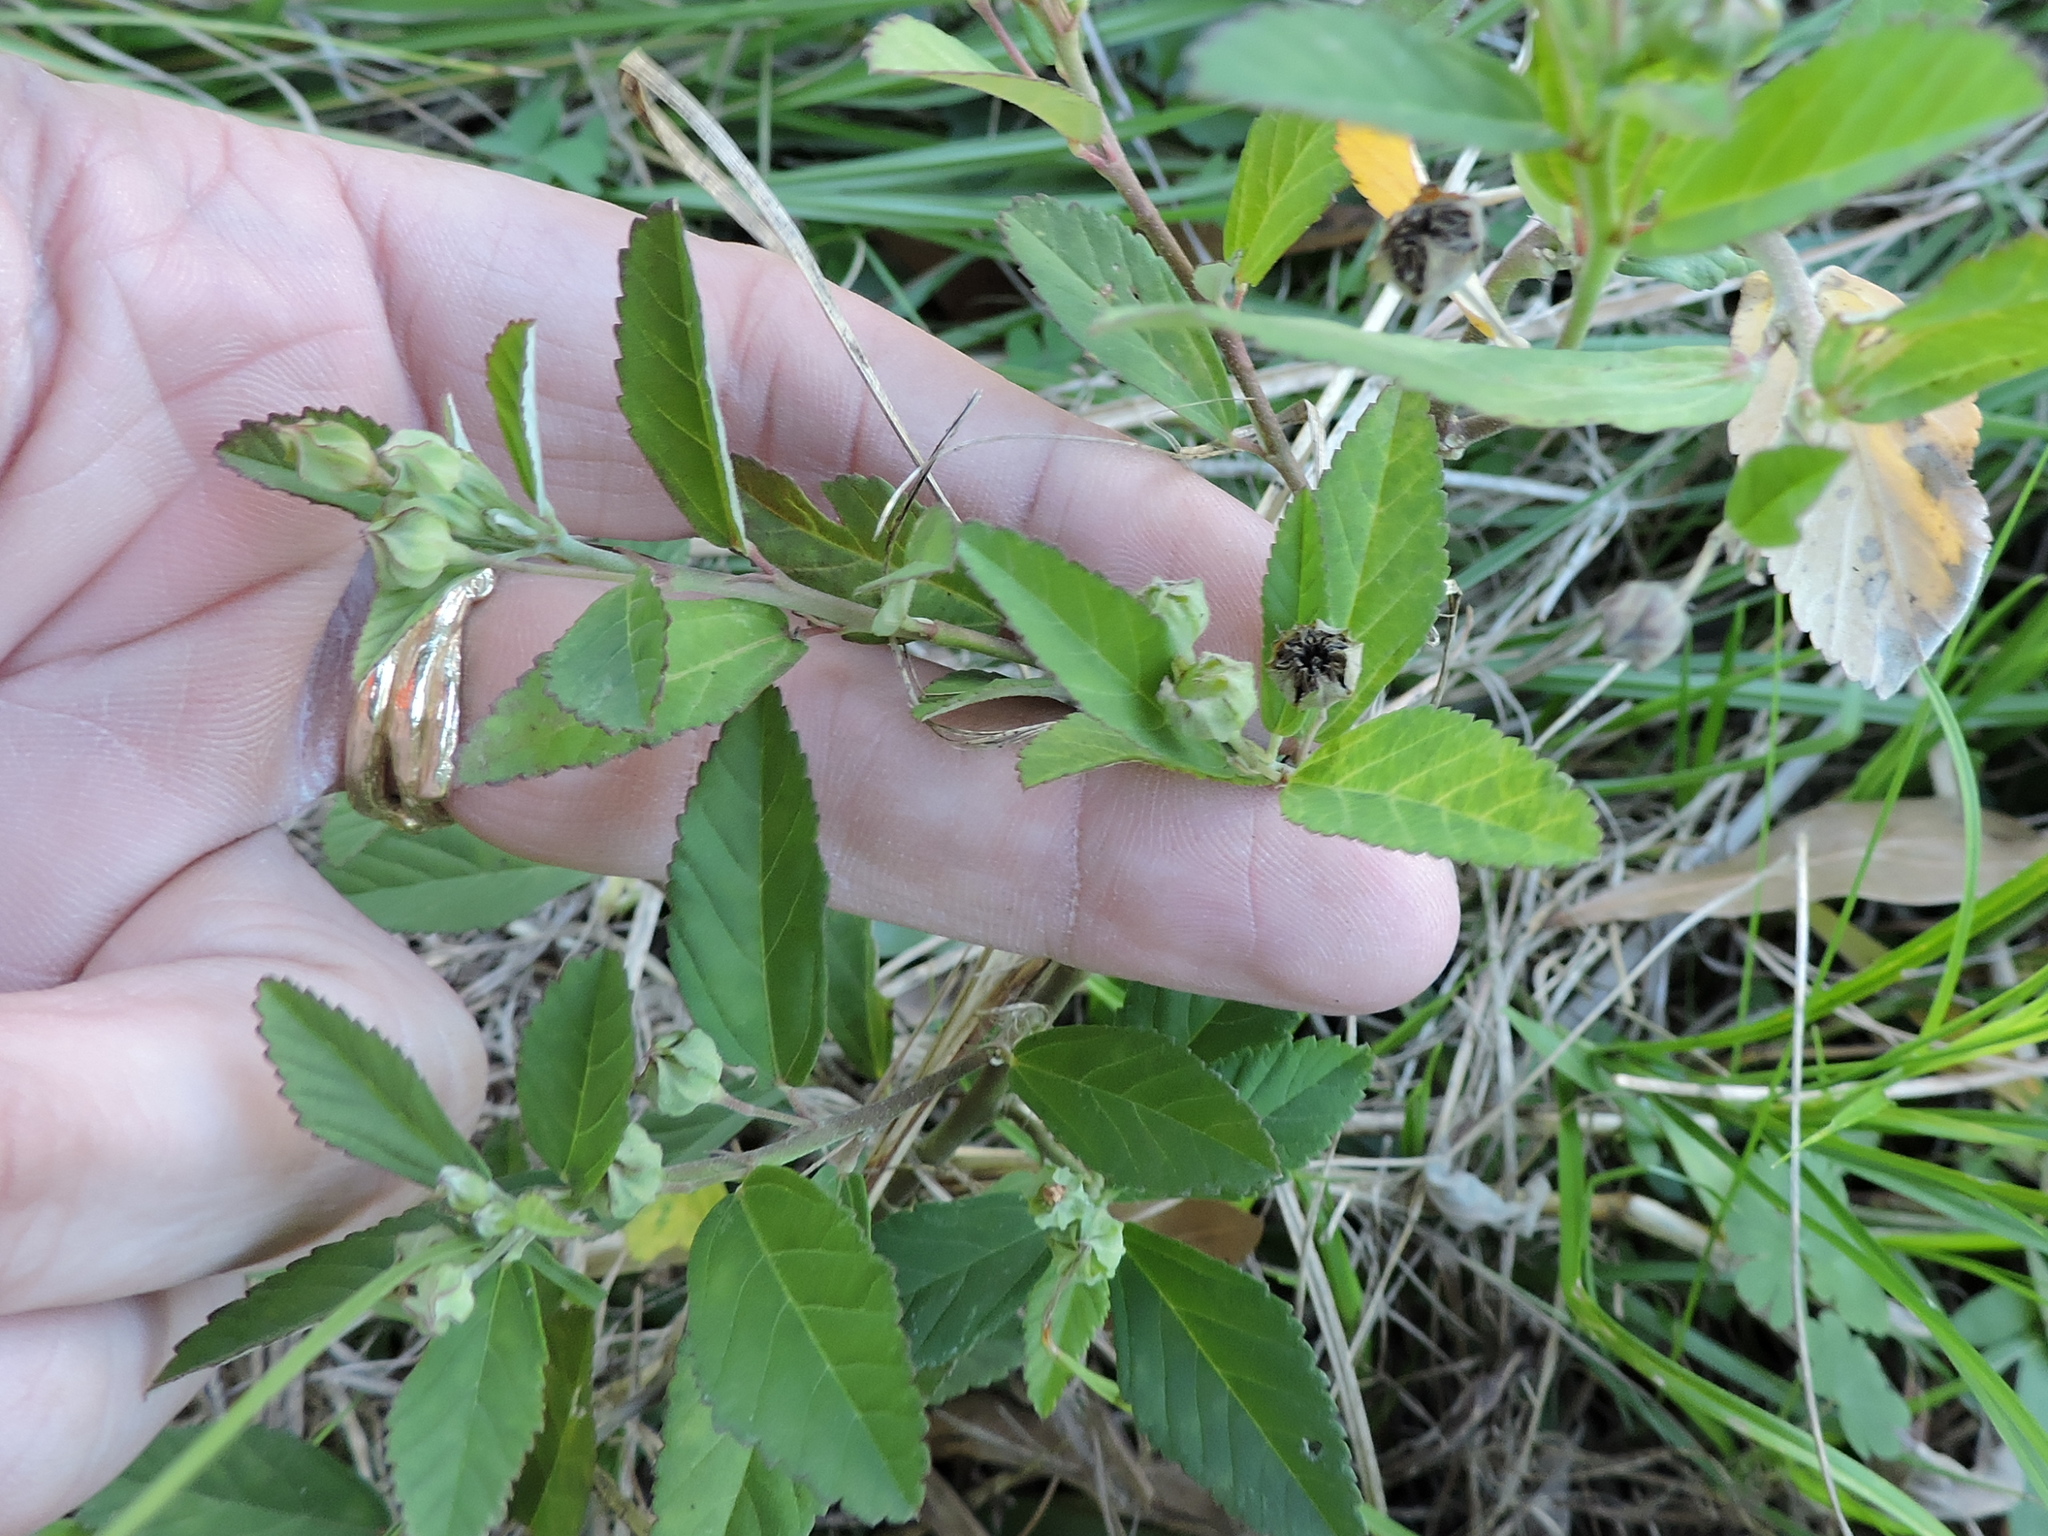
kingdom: Plantae
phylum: Tracheophyta
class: Magnoliopsida
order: Malvales
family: Malvaceae
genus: Sida
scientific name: Sida rhombifolia
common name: Queensland-hemp
